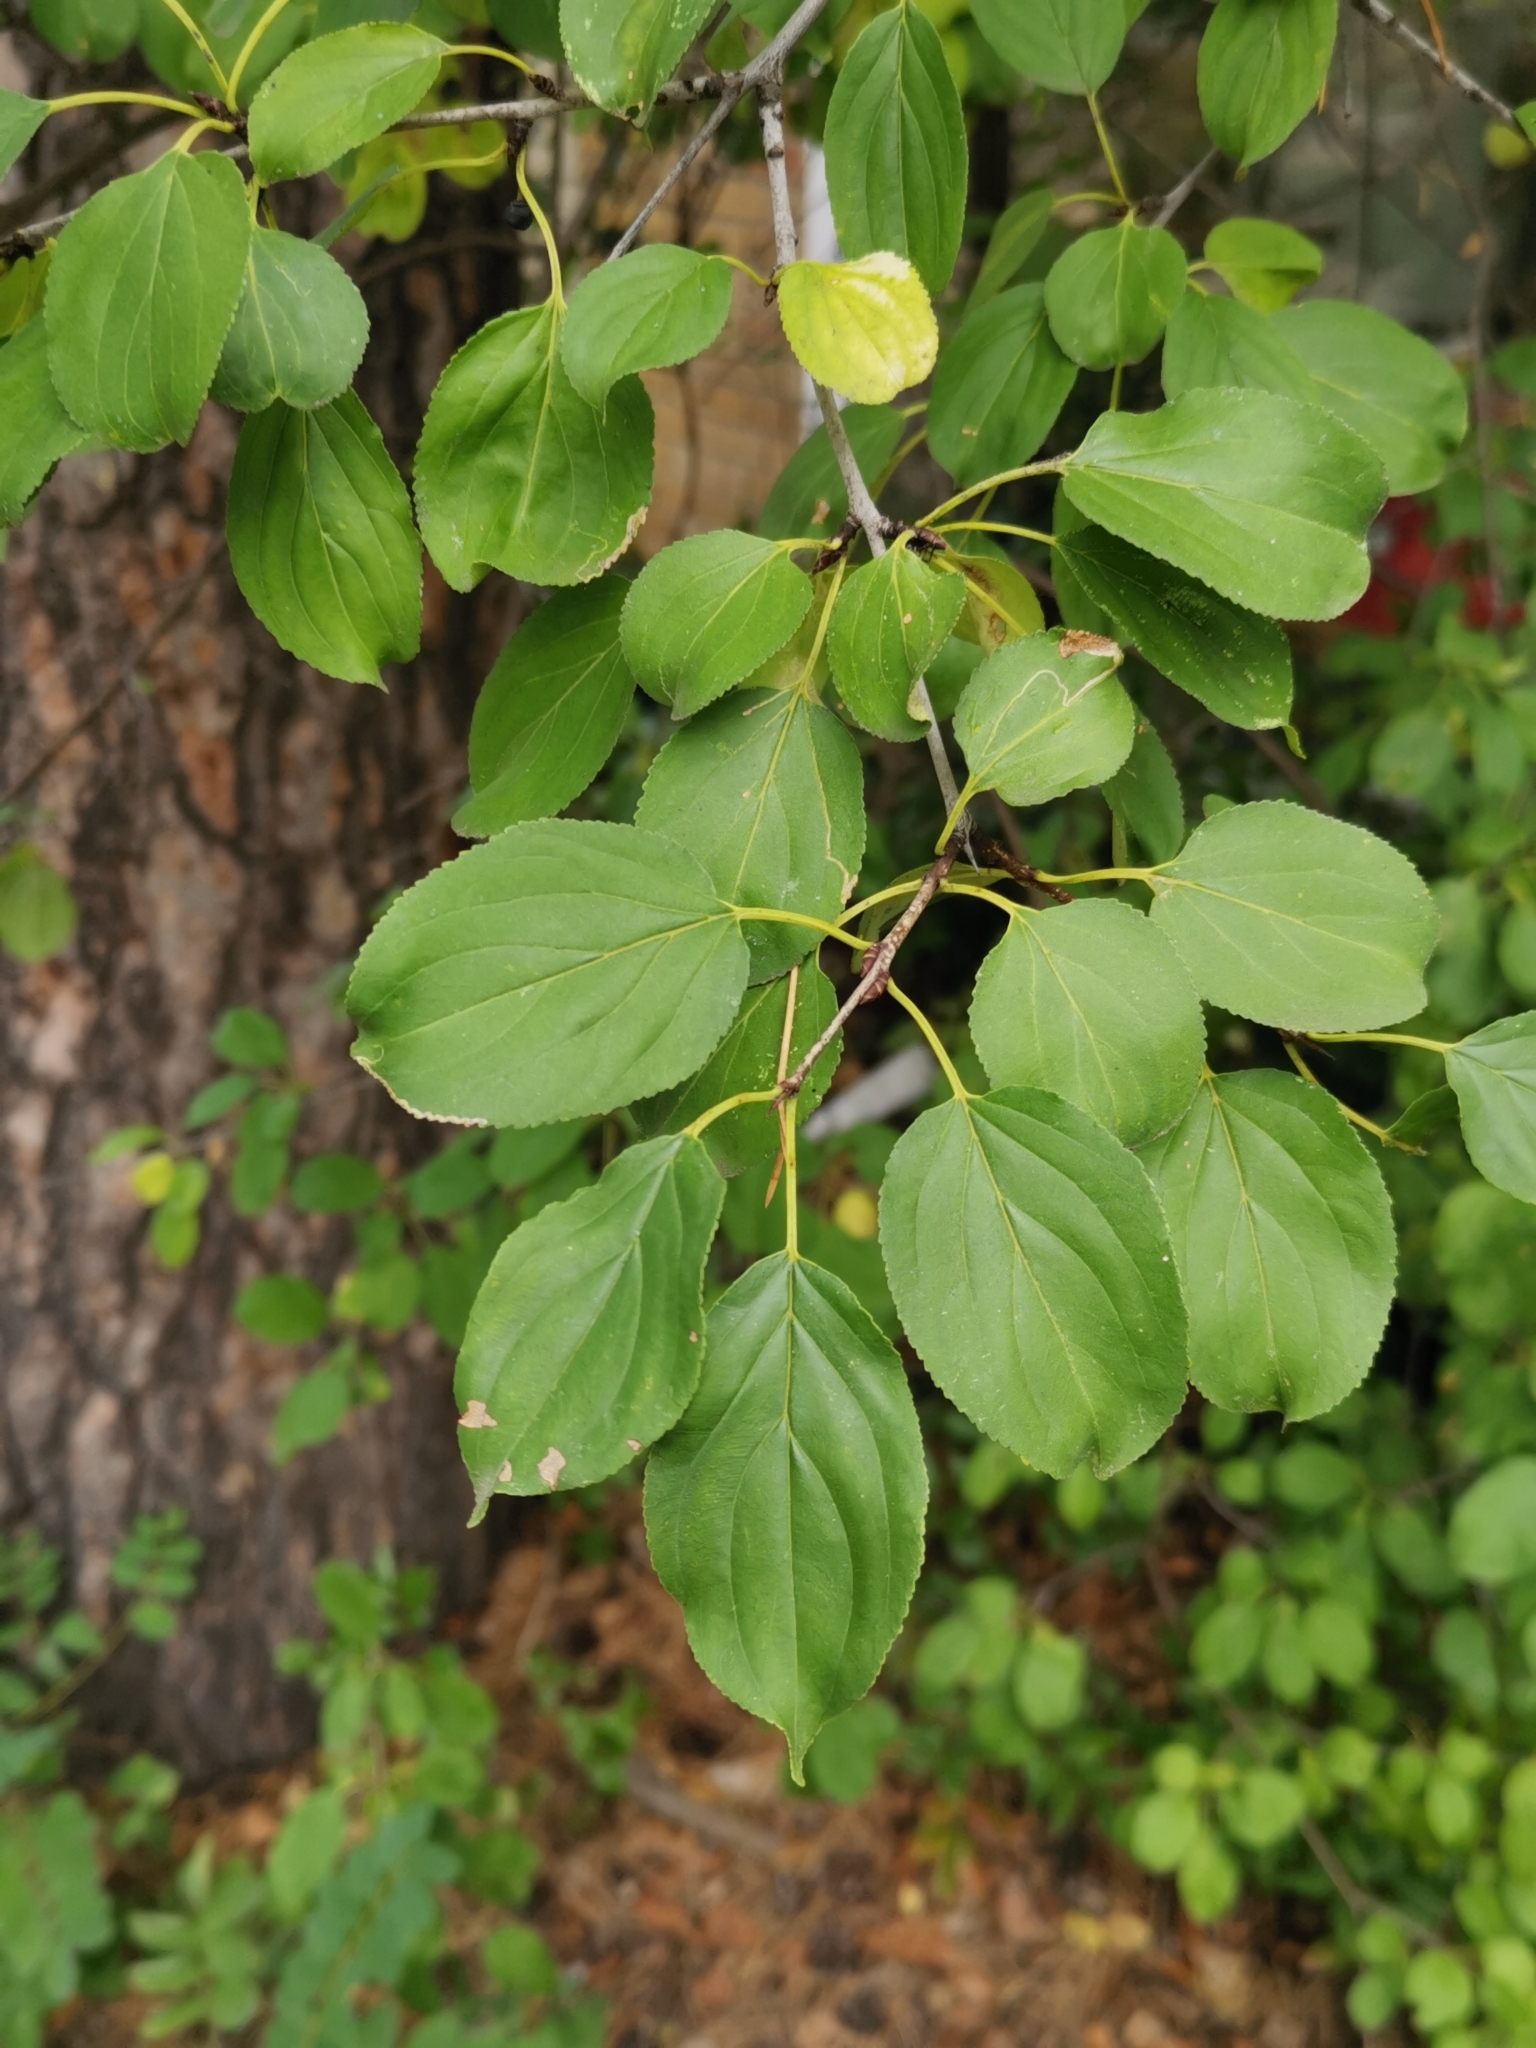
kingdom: Plantae
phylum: Tracheophyta
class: Magnoliopsida
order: Rosales
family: Rhamnaceae
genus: Rhamnus
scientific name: Rhamnus cathartica
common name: Common buckthorn
